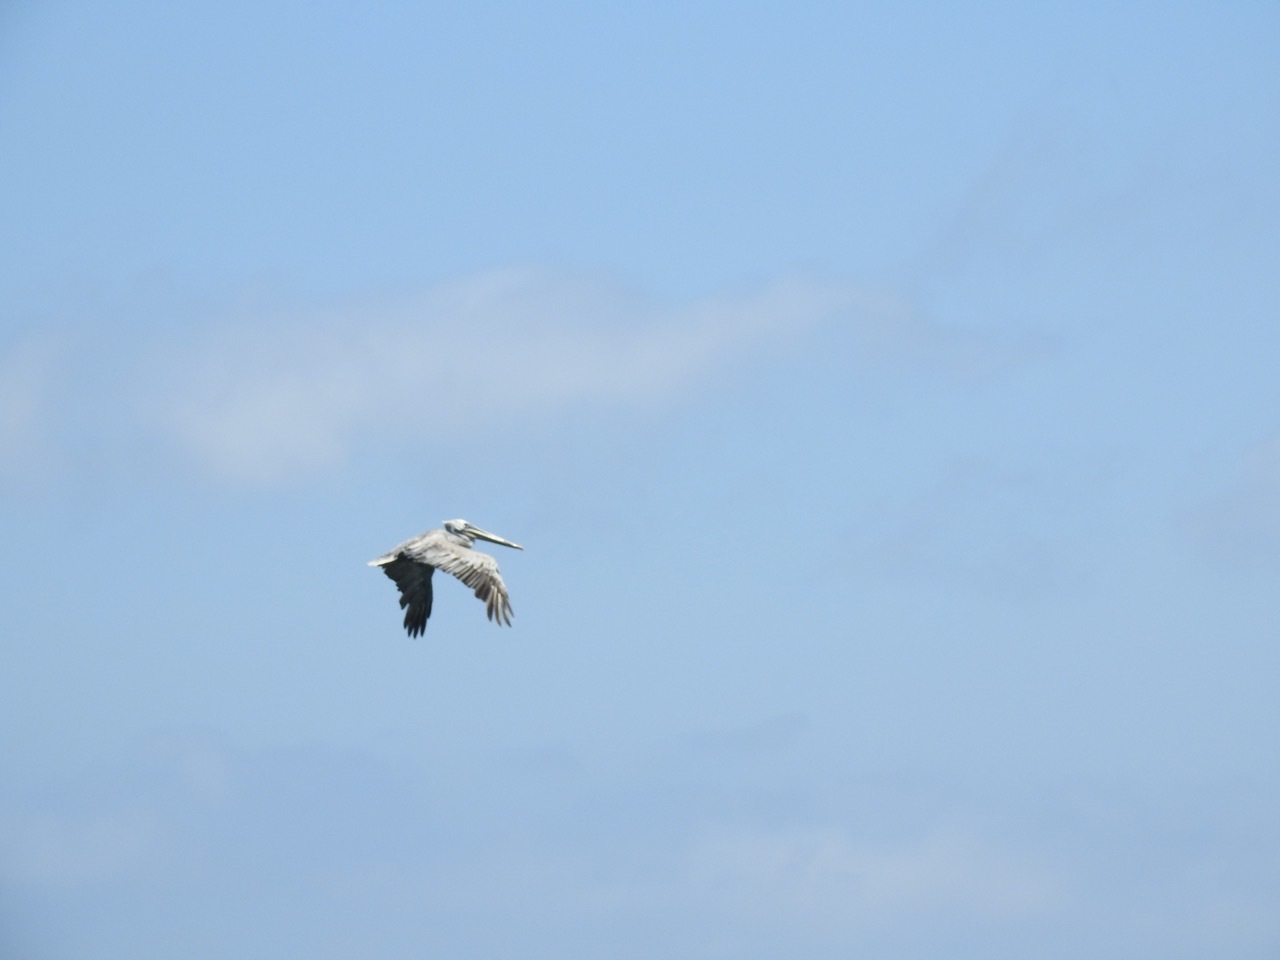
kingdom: Animalia
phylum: Chordata
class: Aves
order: Pelecaniformes
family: Pelecanidae
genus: Pelecanus
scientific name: Pelecanus occidentalis
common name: Brown pelican
